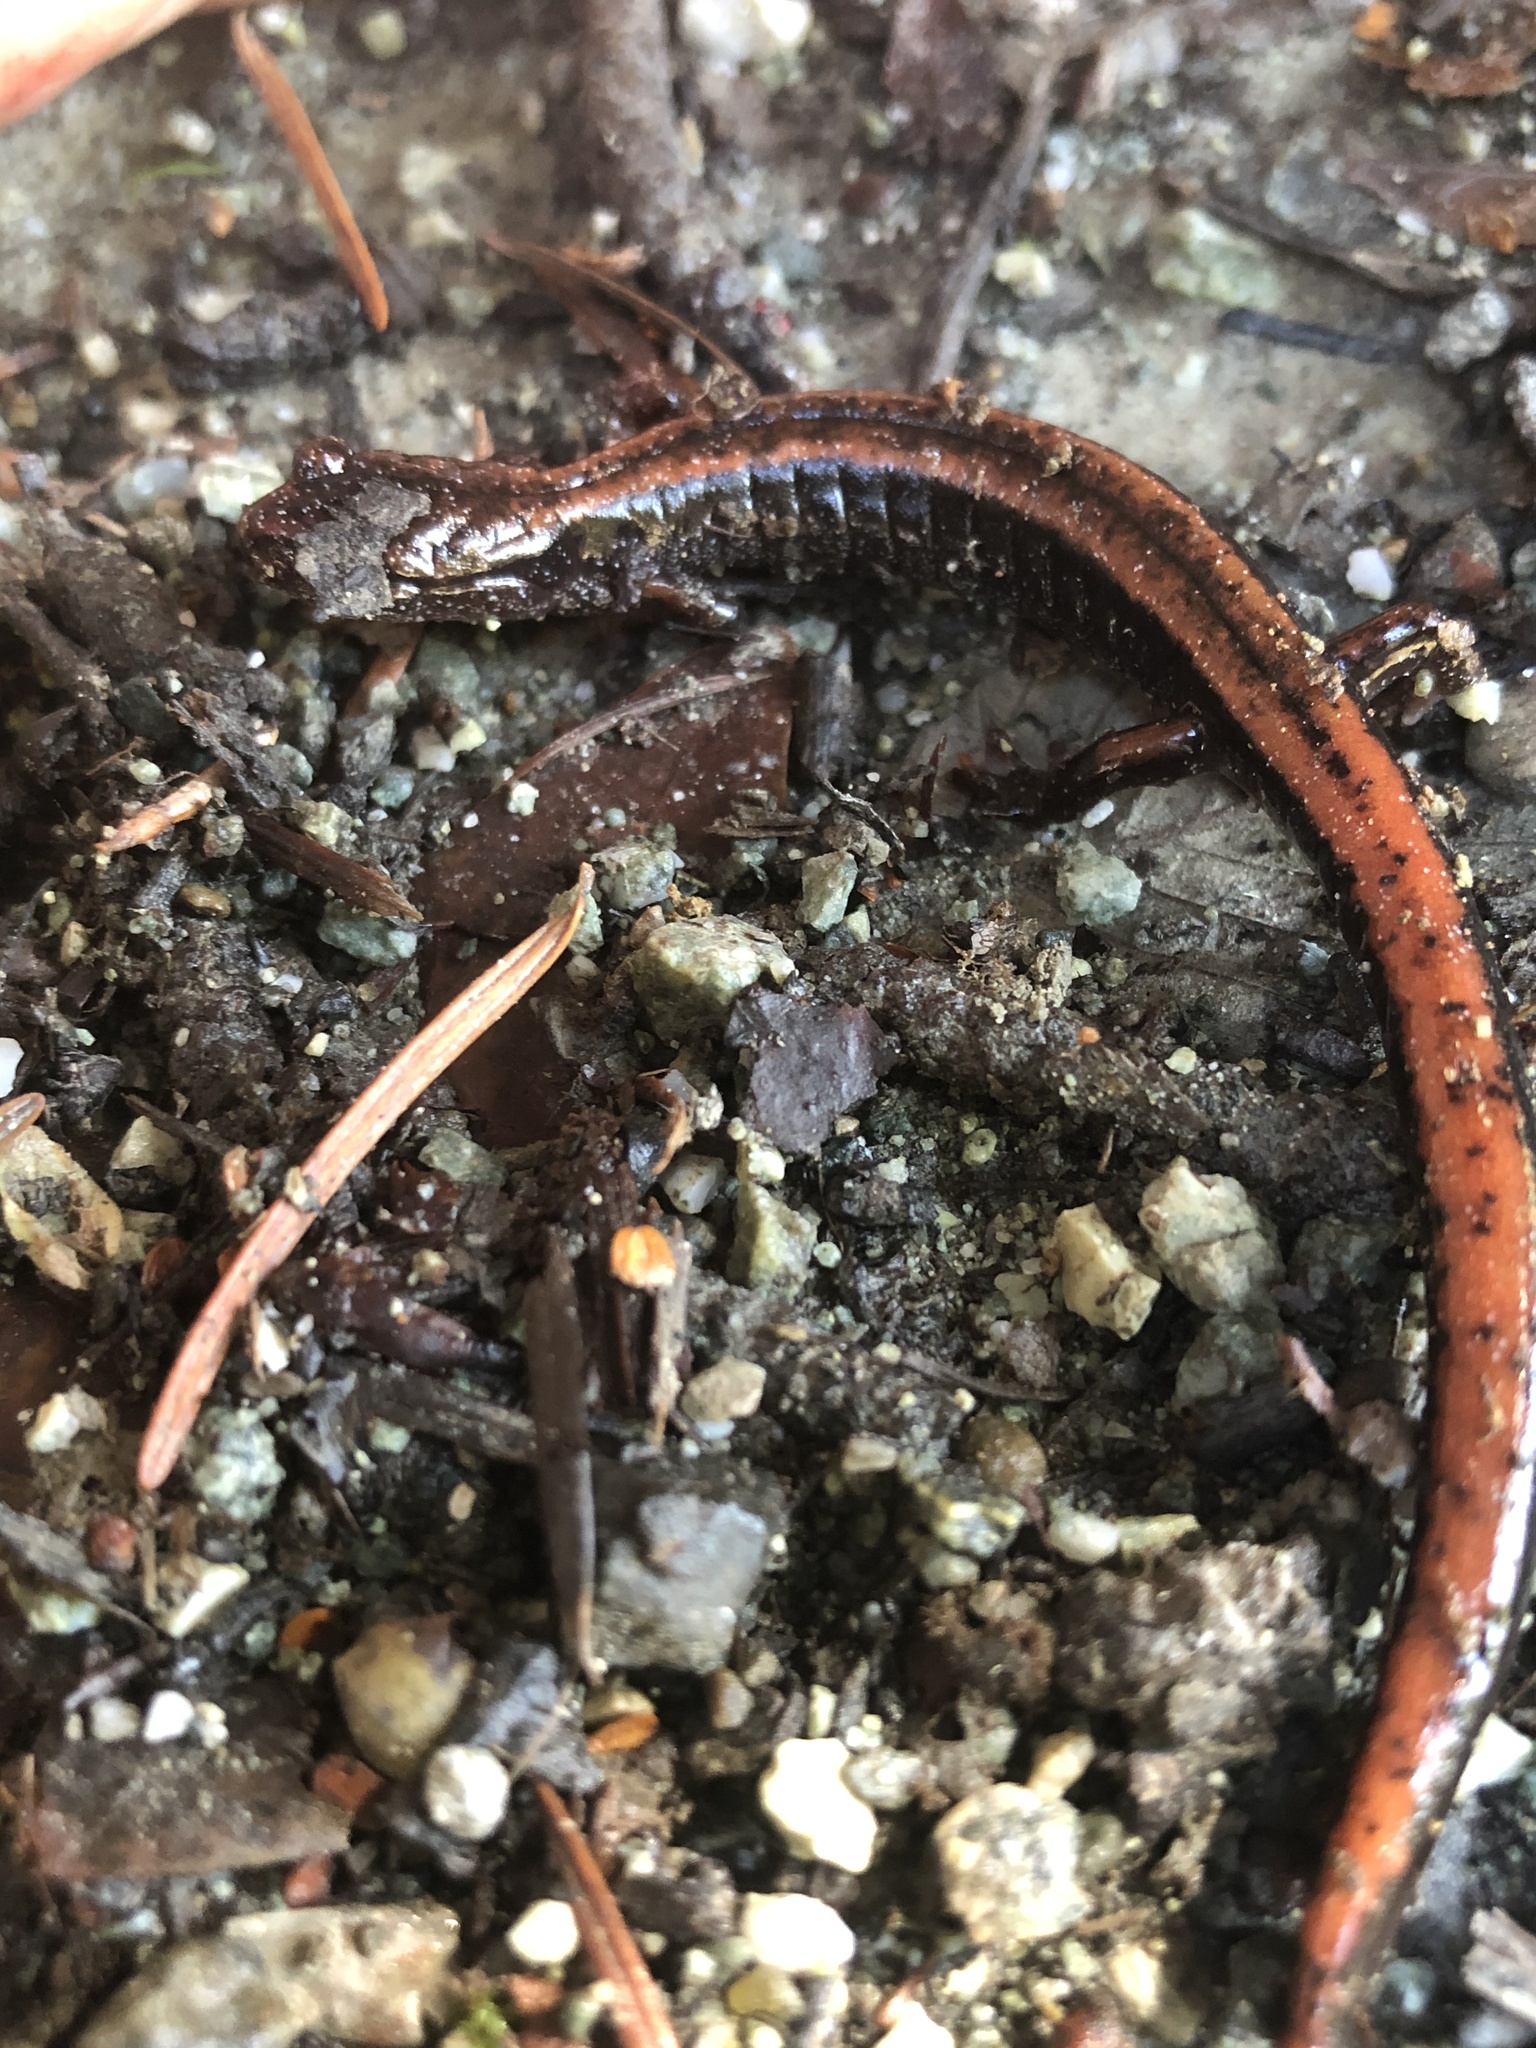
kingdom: Animalia
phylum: Chordata
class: Amphibia
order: Caudata
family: Plethodontidae
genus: Plethodon
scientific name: Plethodon vehiculum
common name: Western red-backed salamander
